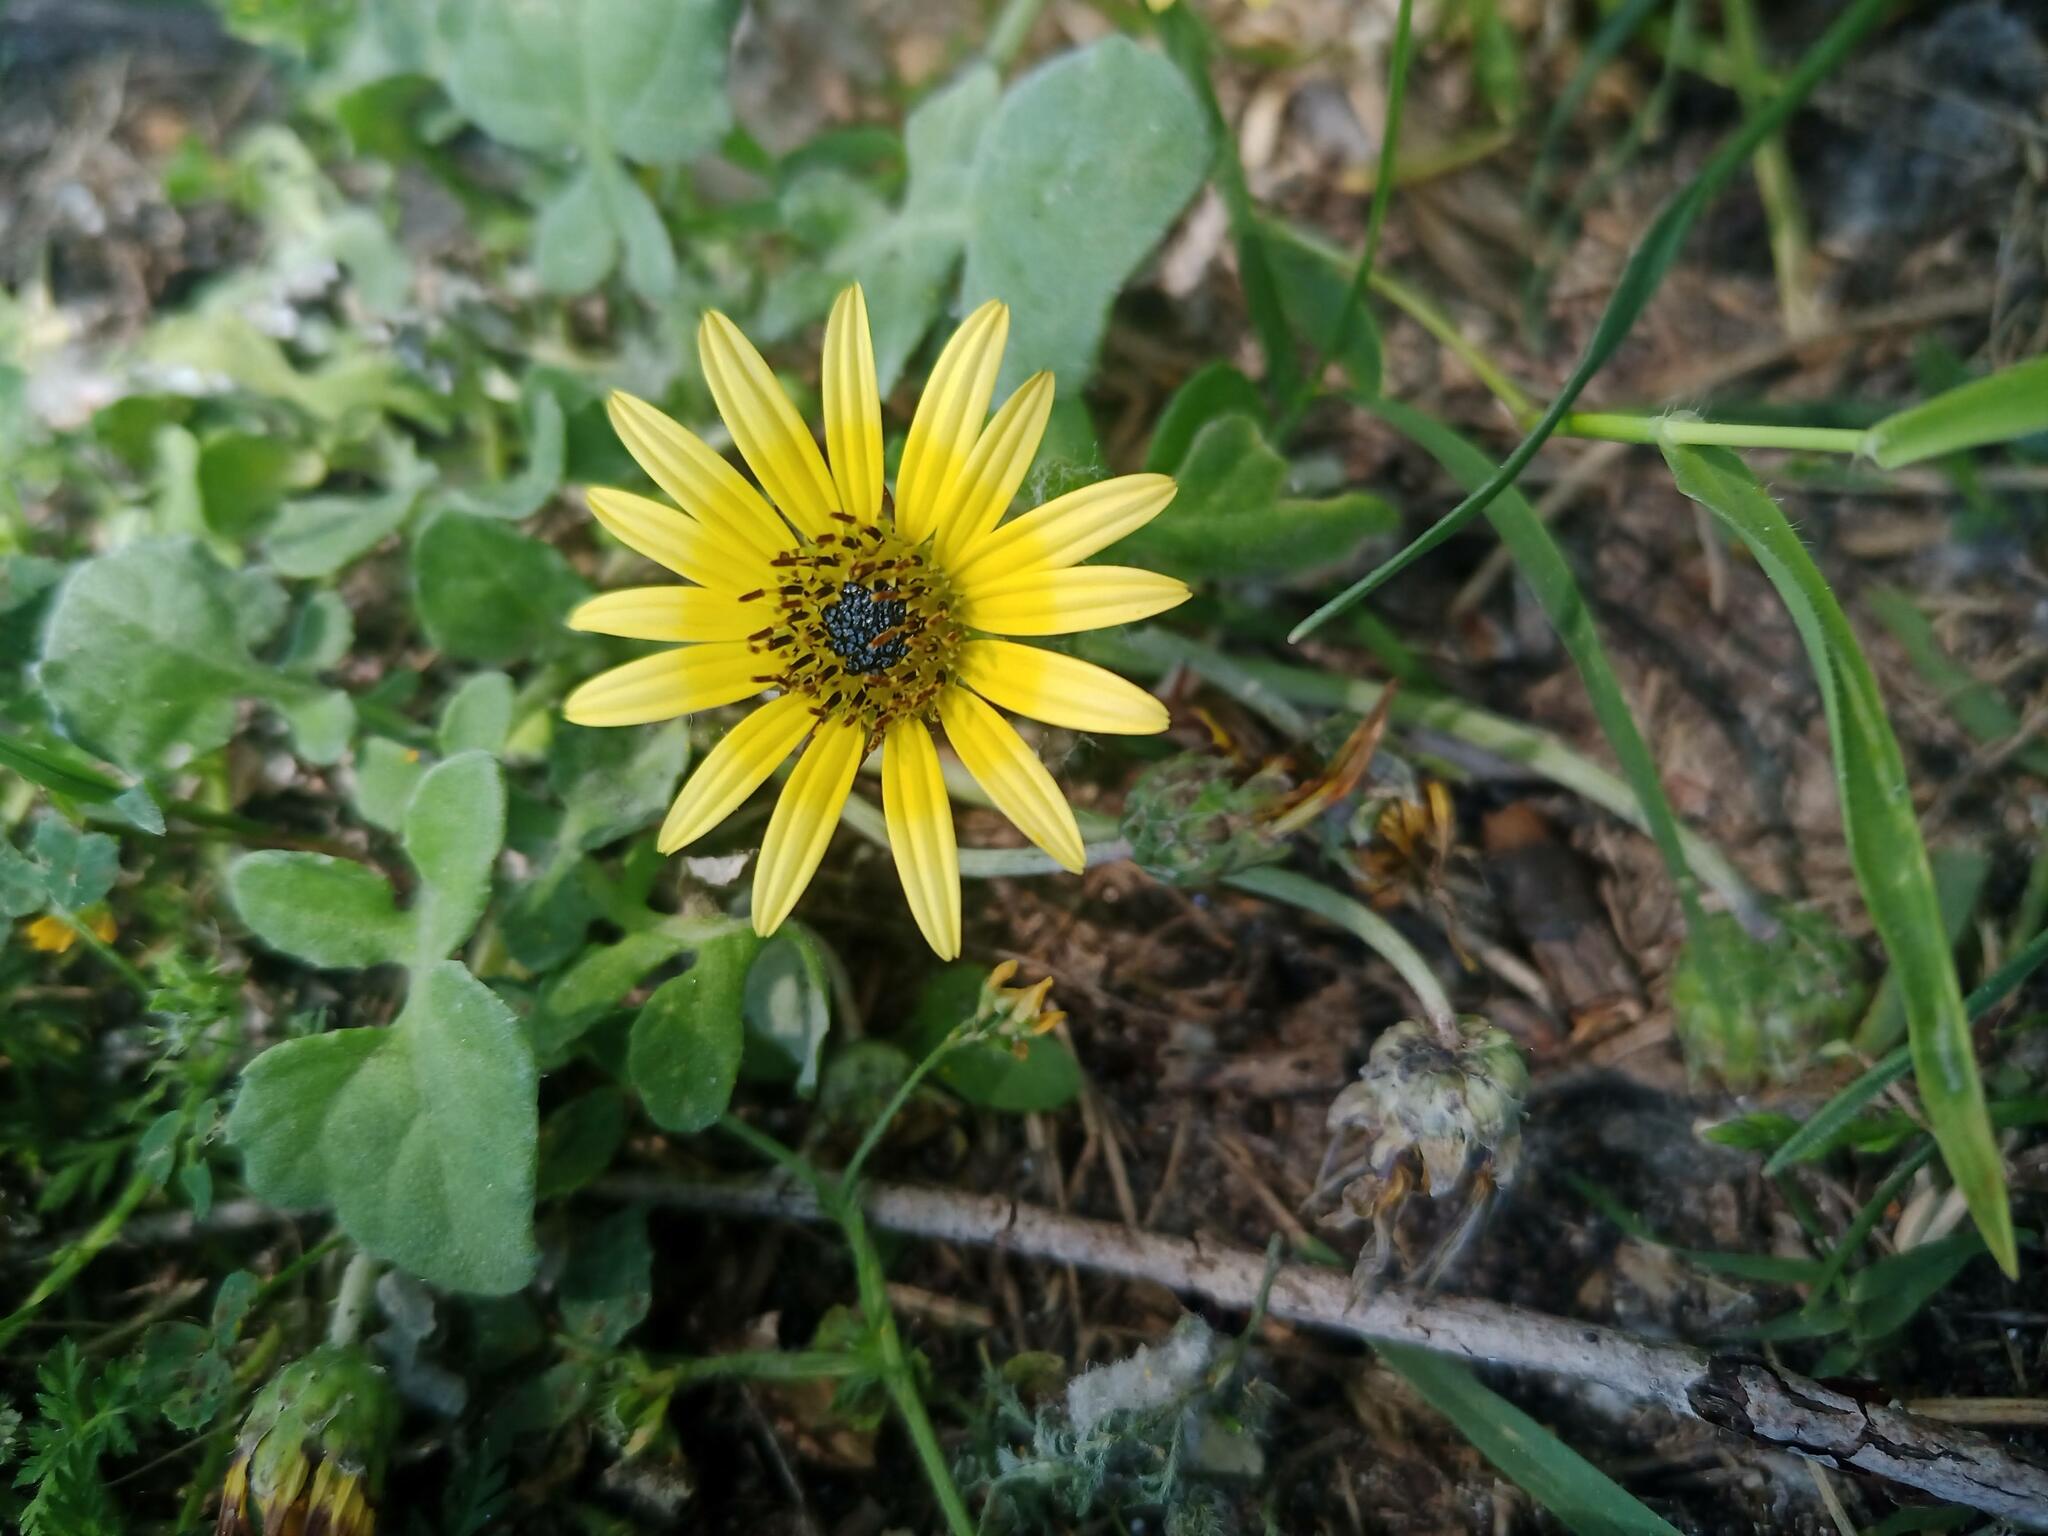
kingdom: Plantae
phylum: Tracheophyta
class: Magnoliopsida
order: Asterales
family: Asteraceae
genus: Arctotheca
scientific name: Arctotheca calendula
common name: Capeweed
